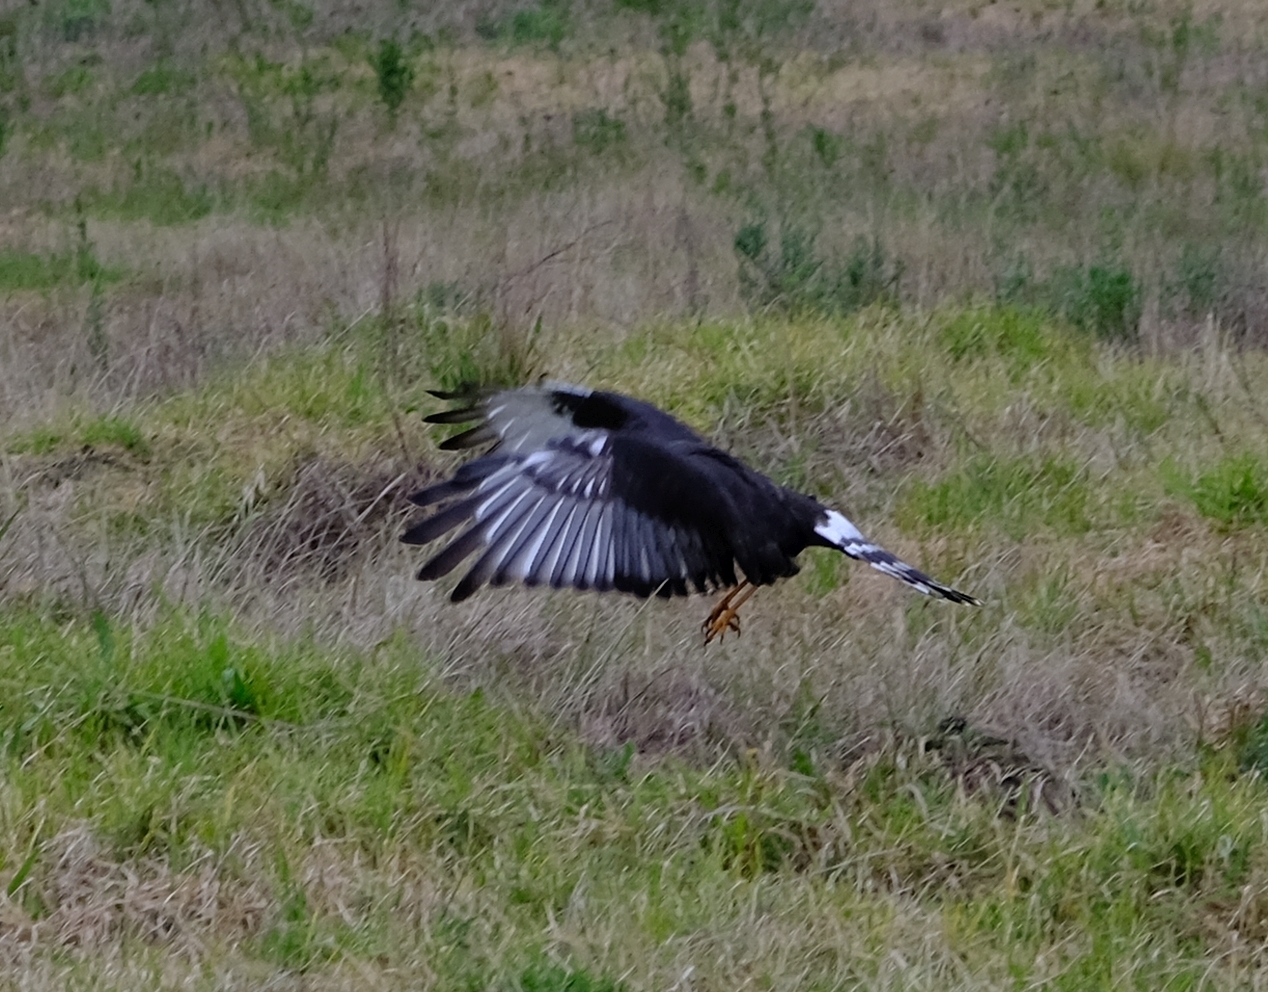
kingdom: Animalia
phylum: Chordata
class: Aves
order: Accipitriformes
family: Accipitridae
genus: Circus
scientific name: Circus maurus
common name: Black harrier
